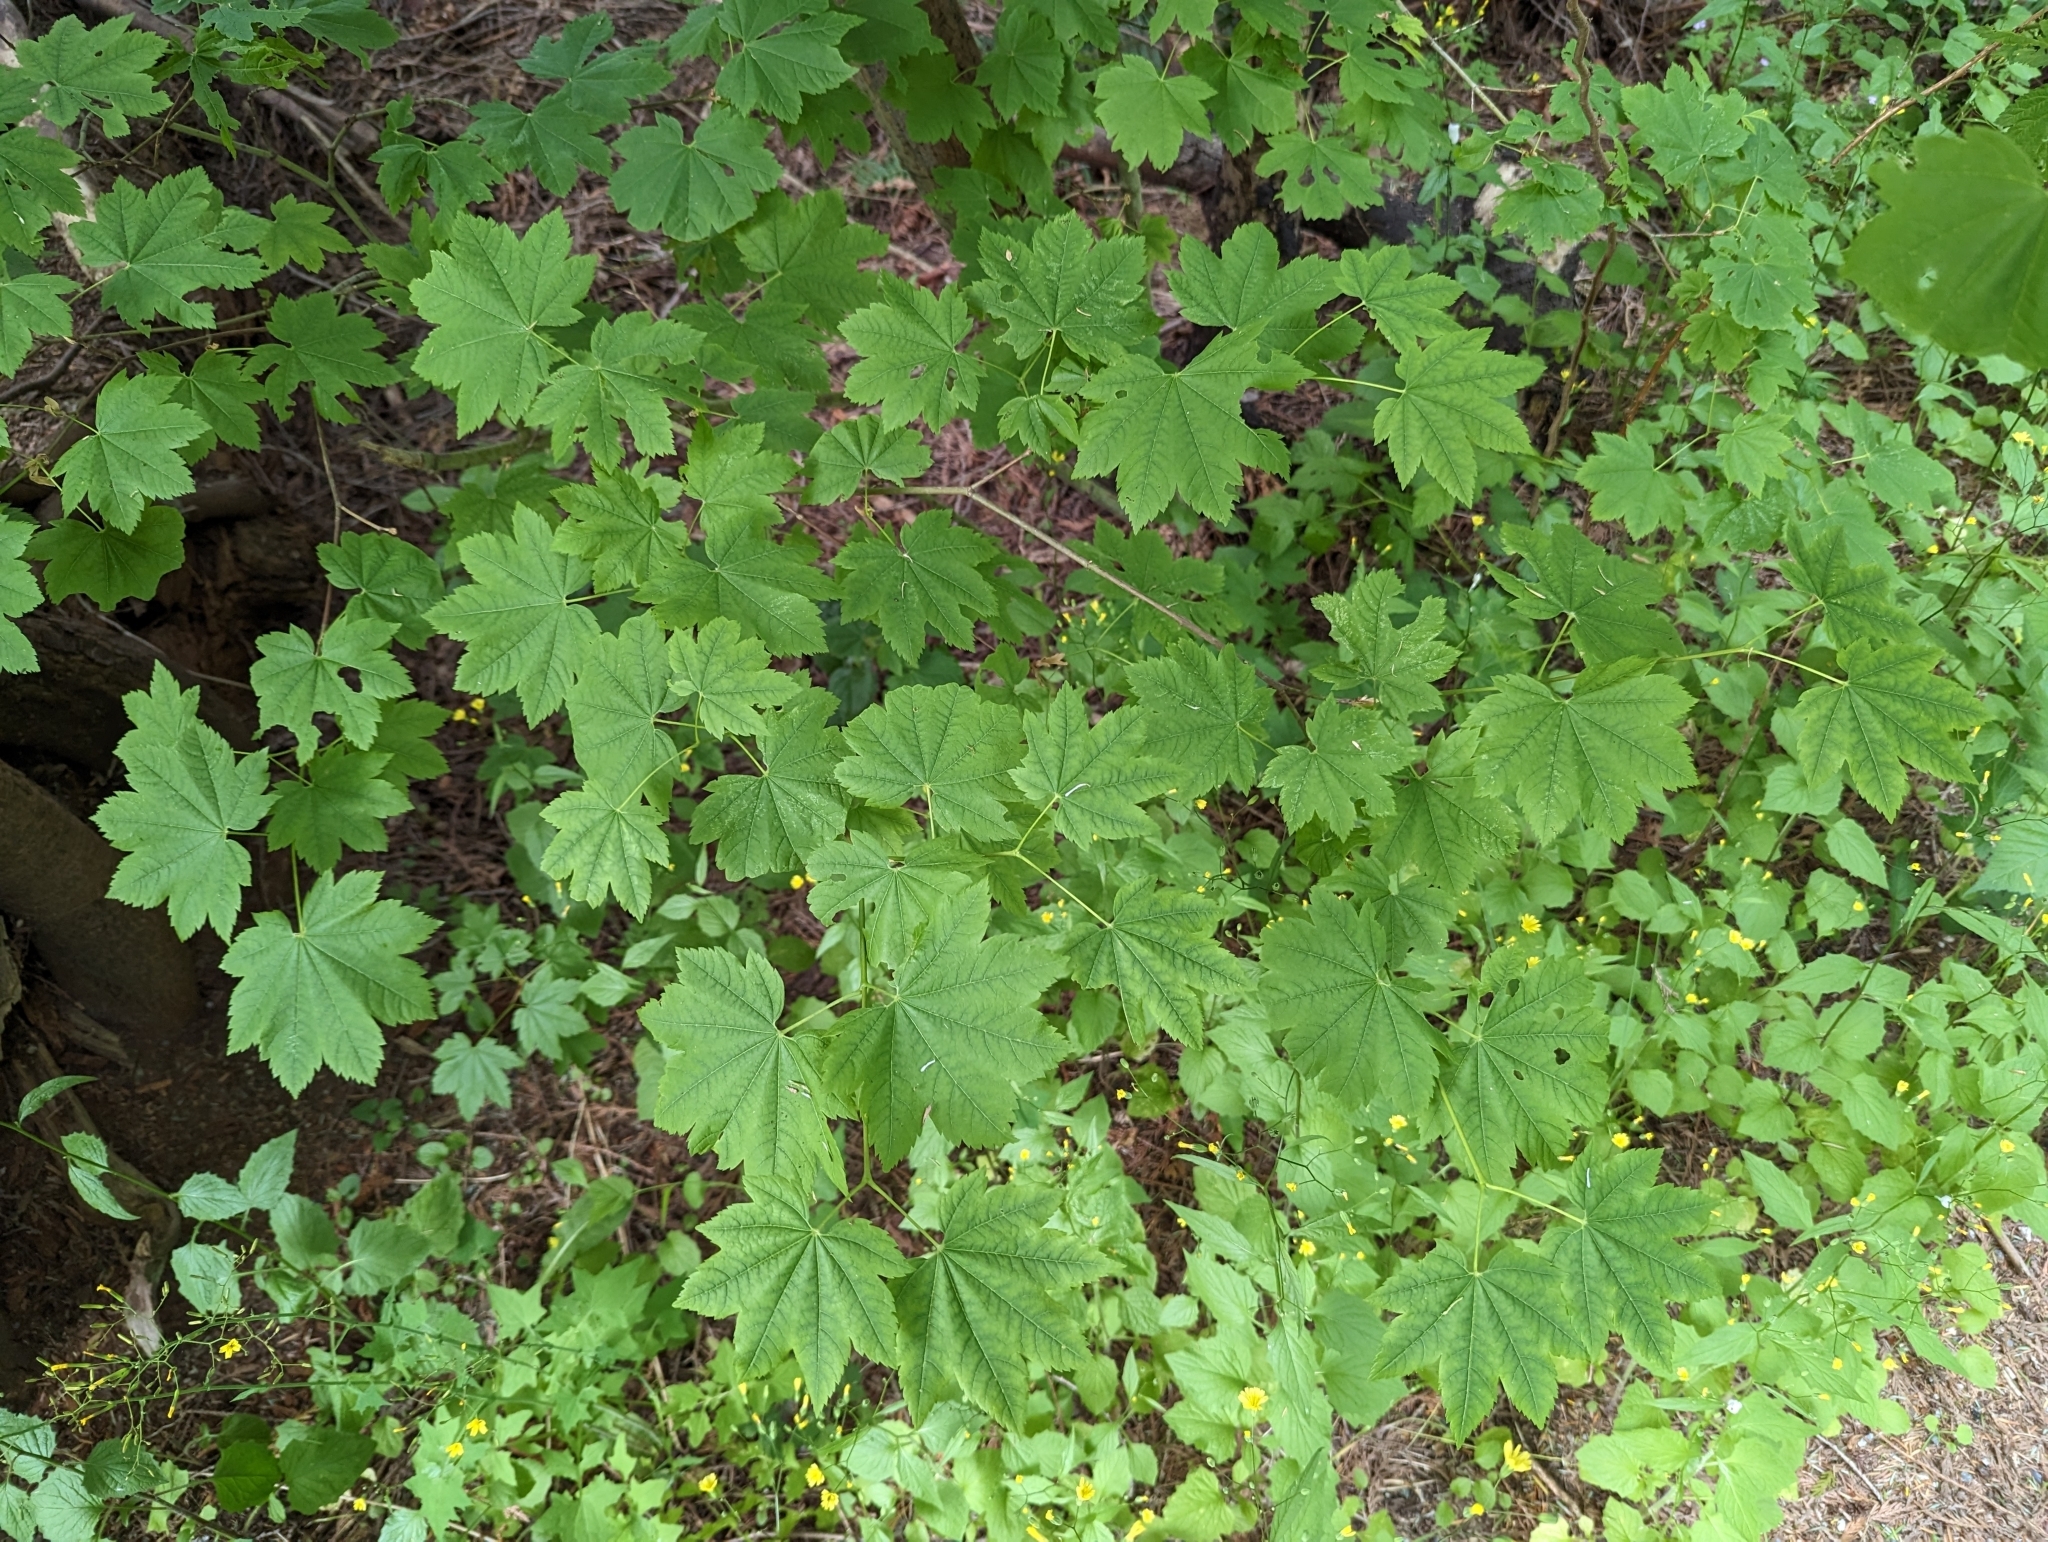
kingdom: Plantae
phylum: Tracheophyta
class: Magnoliopsida
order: Sapindales
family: Sapindaceae
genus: Acer
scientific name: Acer circinatum
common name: Vine maple
